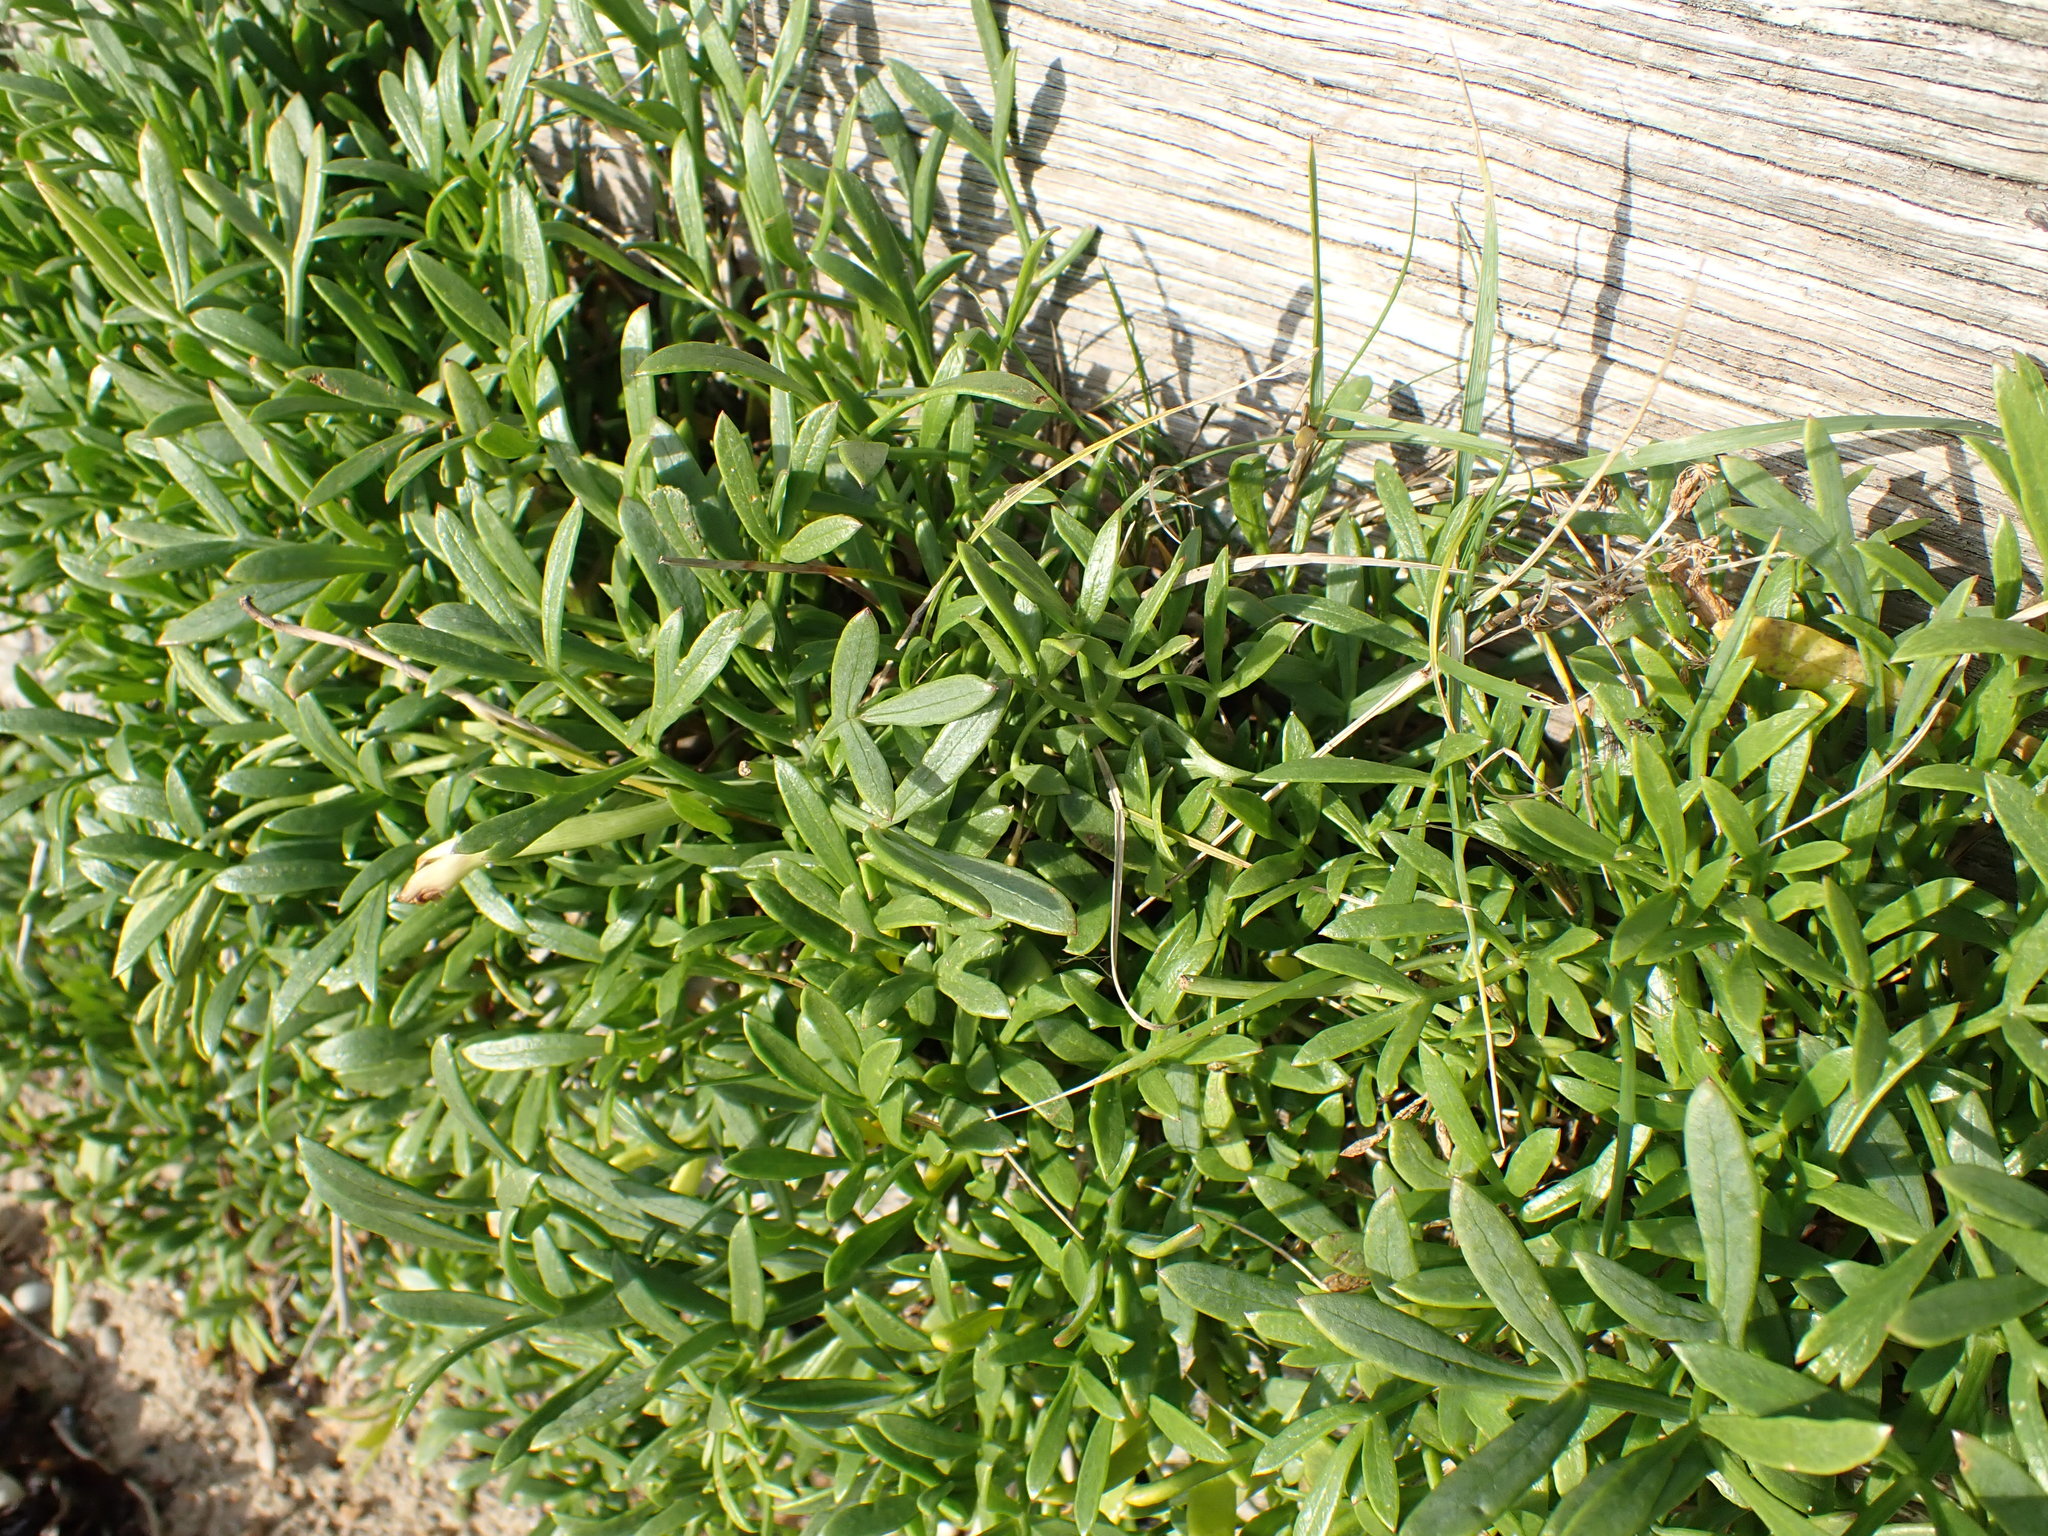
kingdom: Plantae
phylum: Tracheophyta
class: Magnoliopsida
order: Apiales
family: Apiaceae
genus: Crithmum
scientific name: Crithmum maritimum
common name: Rock samphire
